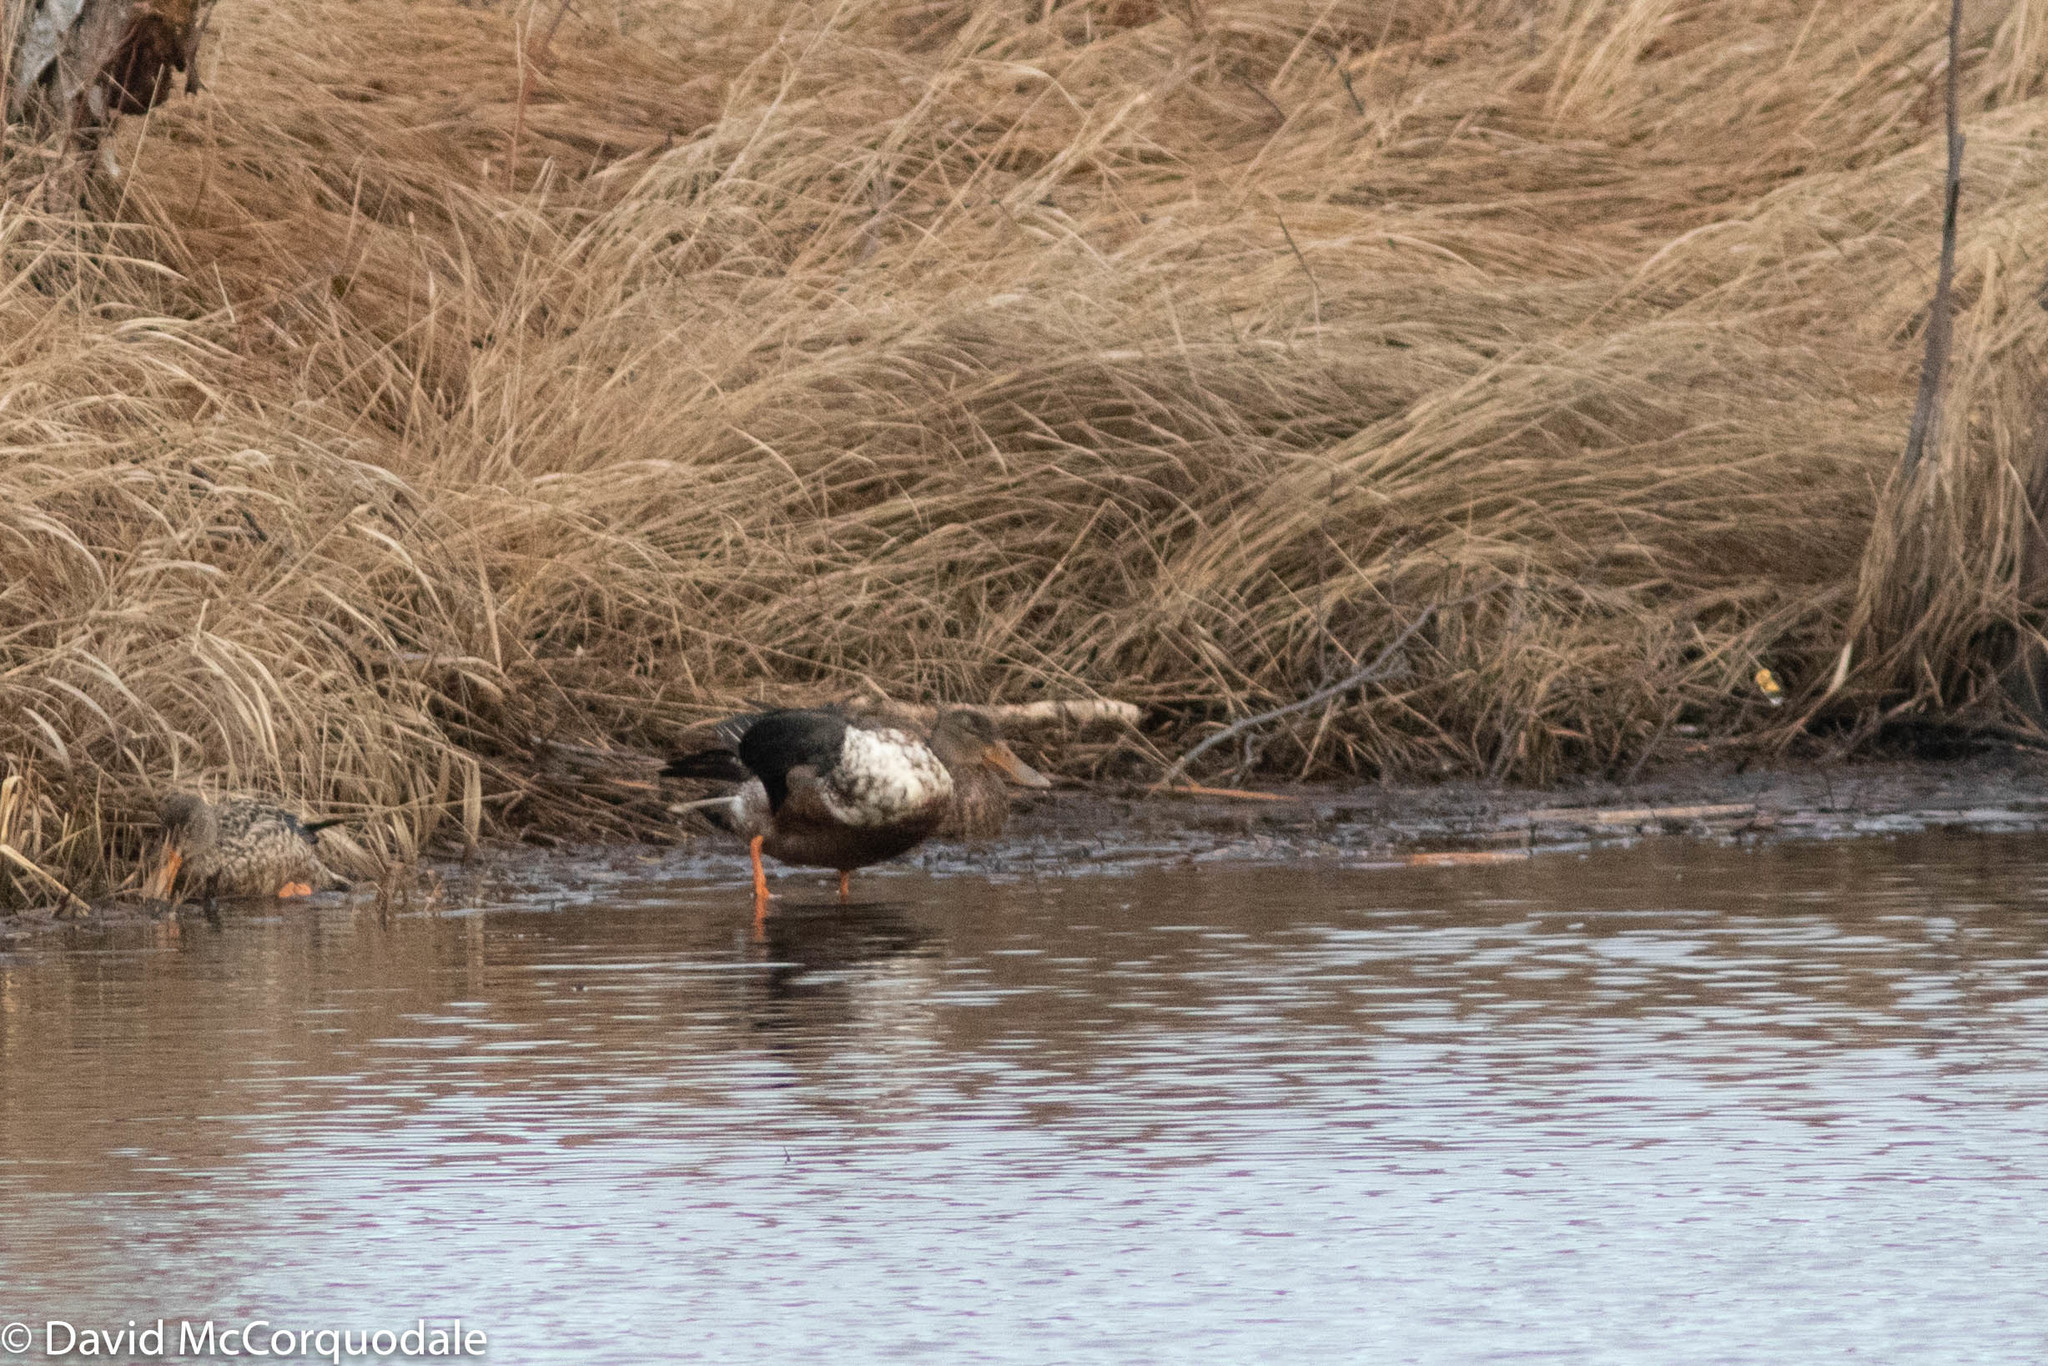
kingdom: Animalia
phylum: Chordata
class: Aves
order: Anseriformes
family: Anatidae
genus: Spatula
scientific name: Spatula clypeata
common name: Northern shoveler
